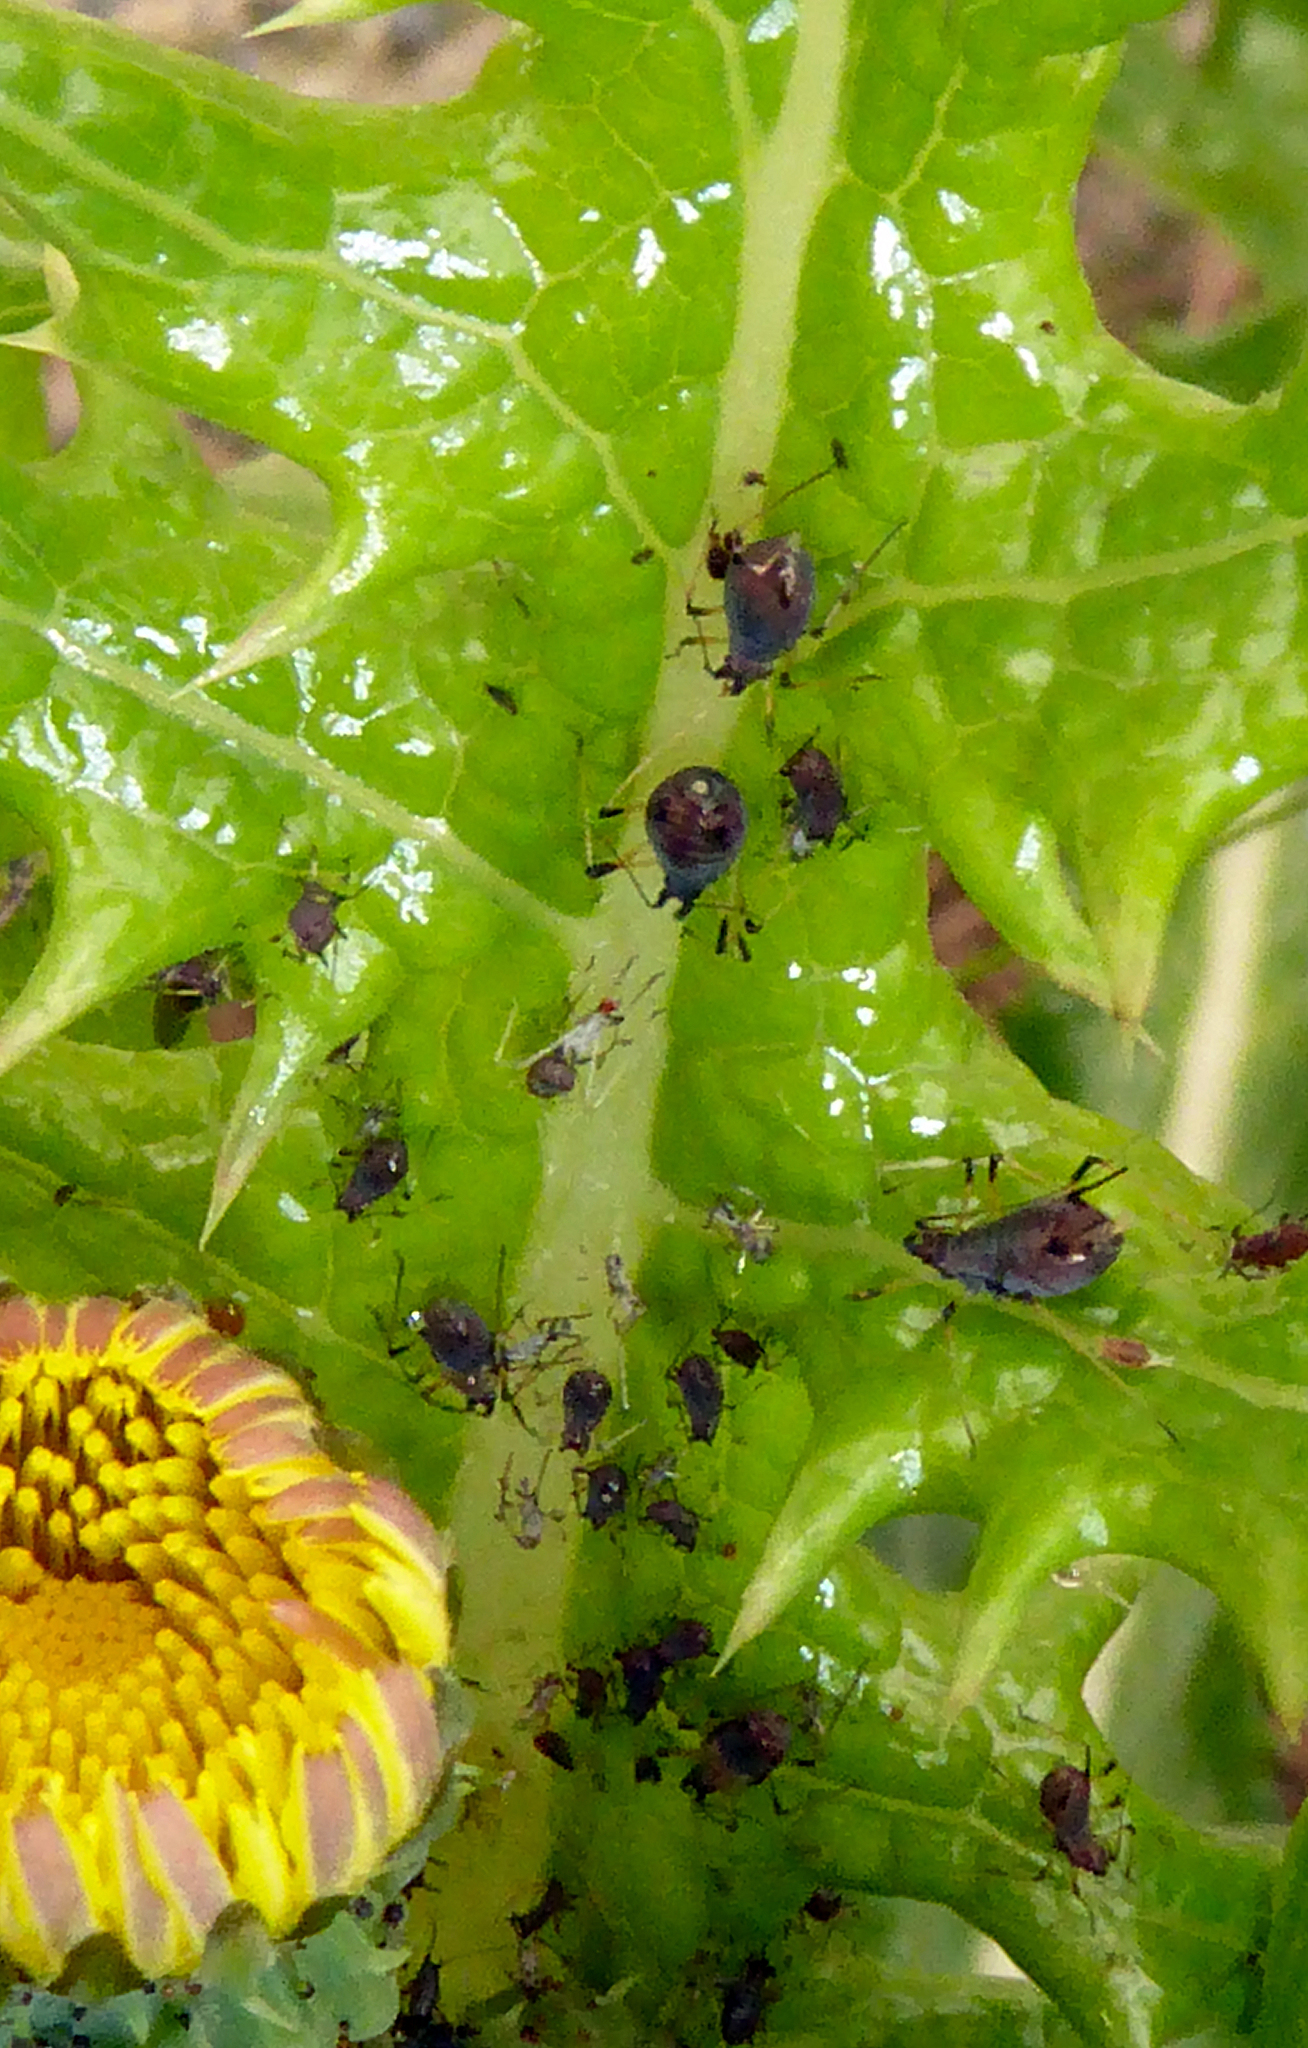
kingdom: Animalia
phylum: Arthropoda
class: Insecta
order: Hemiptera
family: Aphididae
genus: Uroleucon
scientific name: Uroleucon sonchi
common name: Large sowthistle aphid
